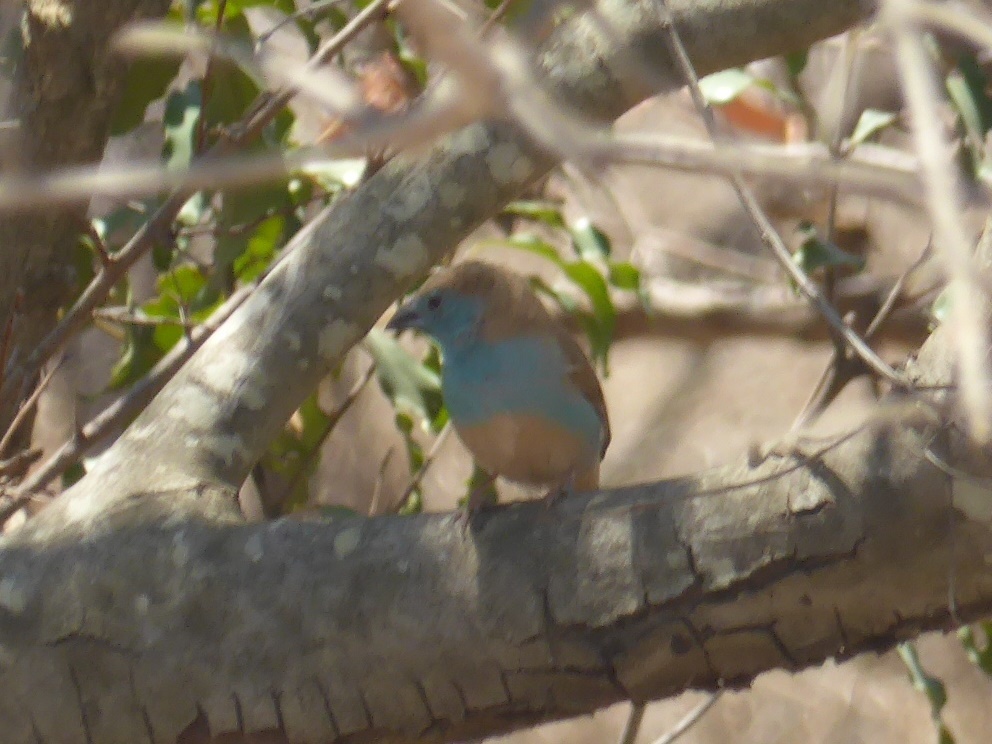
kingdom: Animalia
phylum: Chordata
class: Aves
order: Passeriformes
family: Estrildidae
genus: Uraeginthus
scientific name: Uraeginthus angolensis
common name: Blue waxbill
